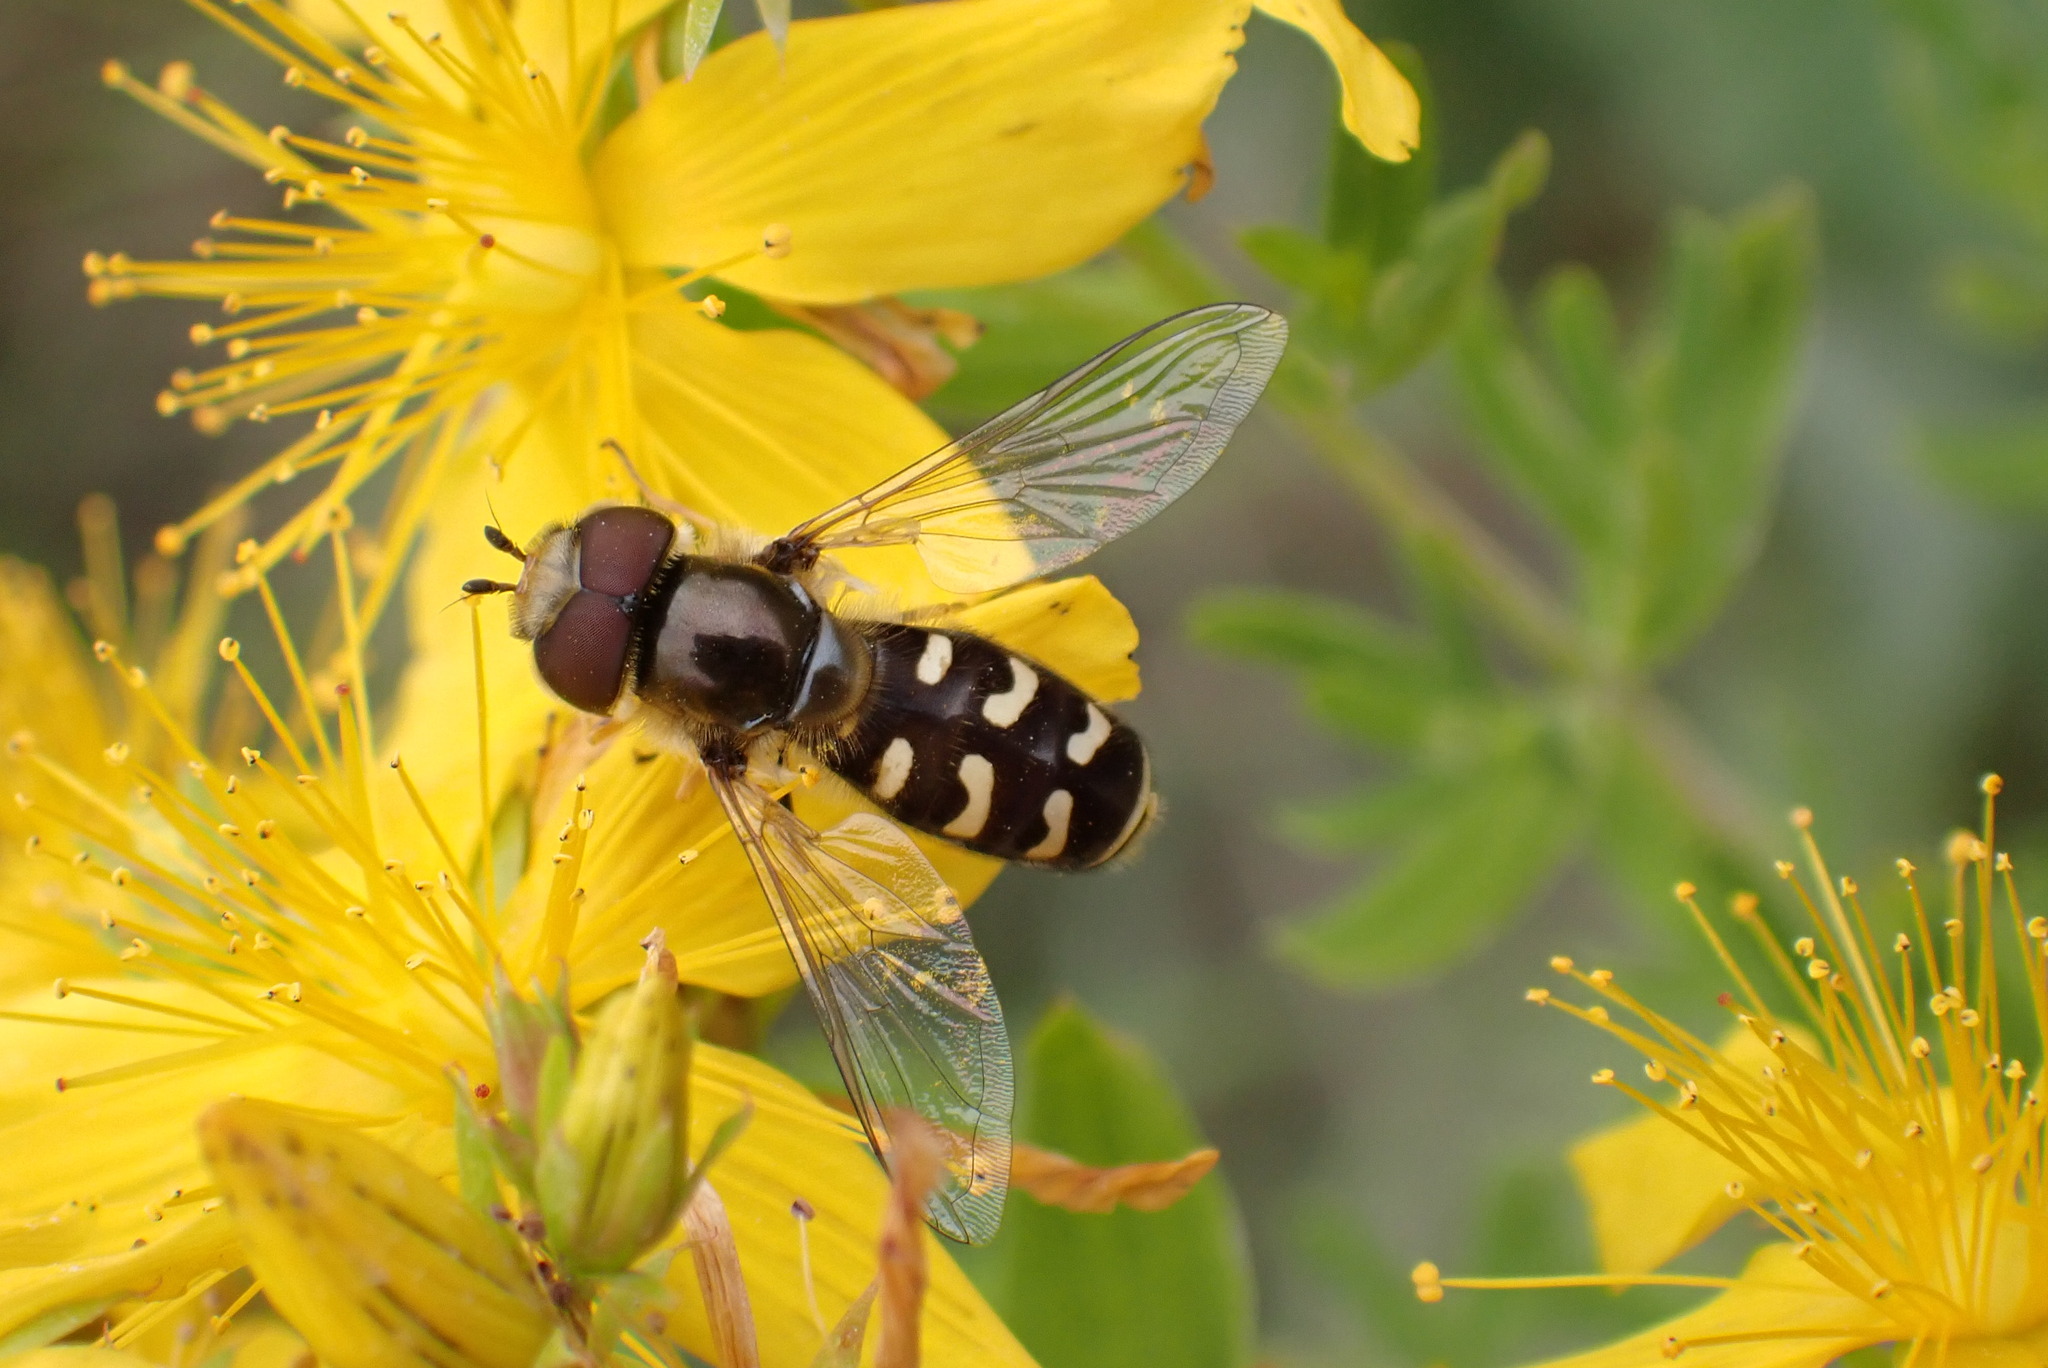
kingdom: Animalia
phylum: Arthropoda
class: Insecta
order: Diptera
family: Syrphidae
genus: Scaeva
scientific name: Scaeva pyrastri
